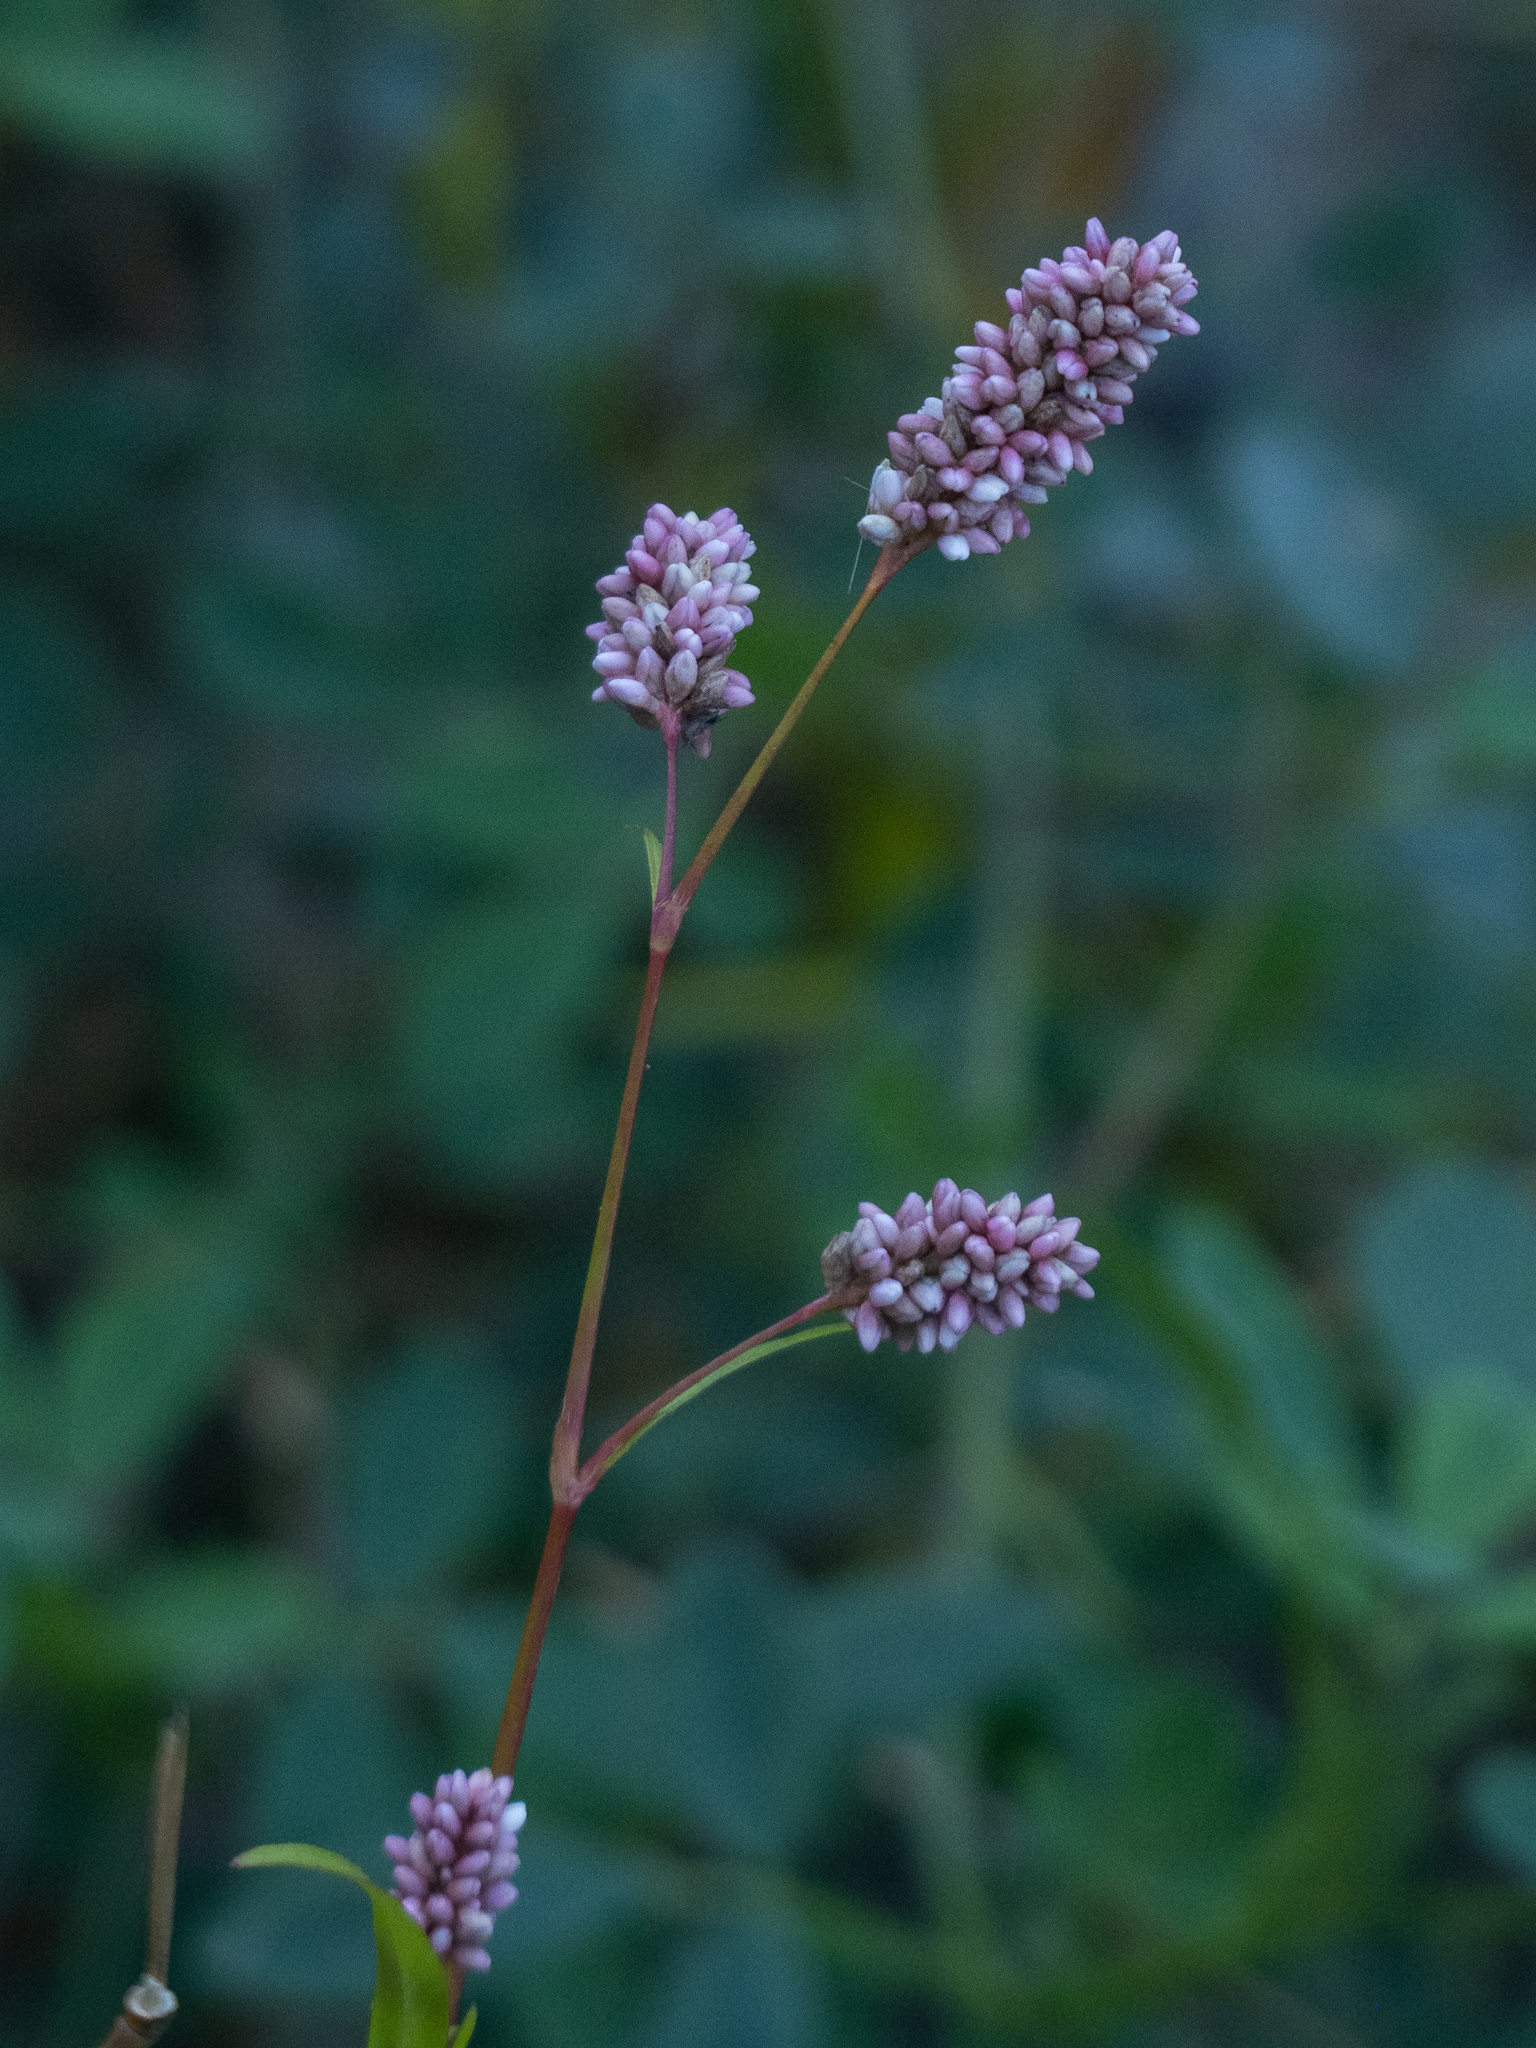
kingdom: Plantae
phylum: Tracheophyta
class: Magnoliopsida
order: Caryophyllales
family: Polygonaceae
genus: Persicaria
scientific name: Persicaria maculosa
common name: Redshank
